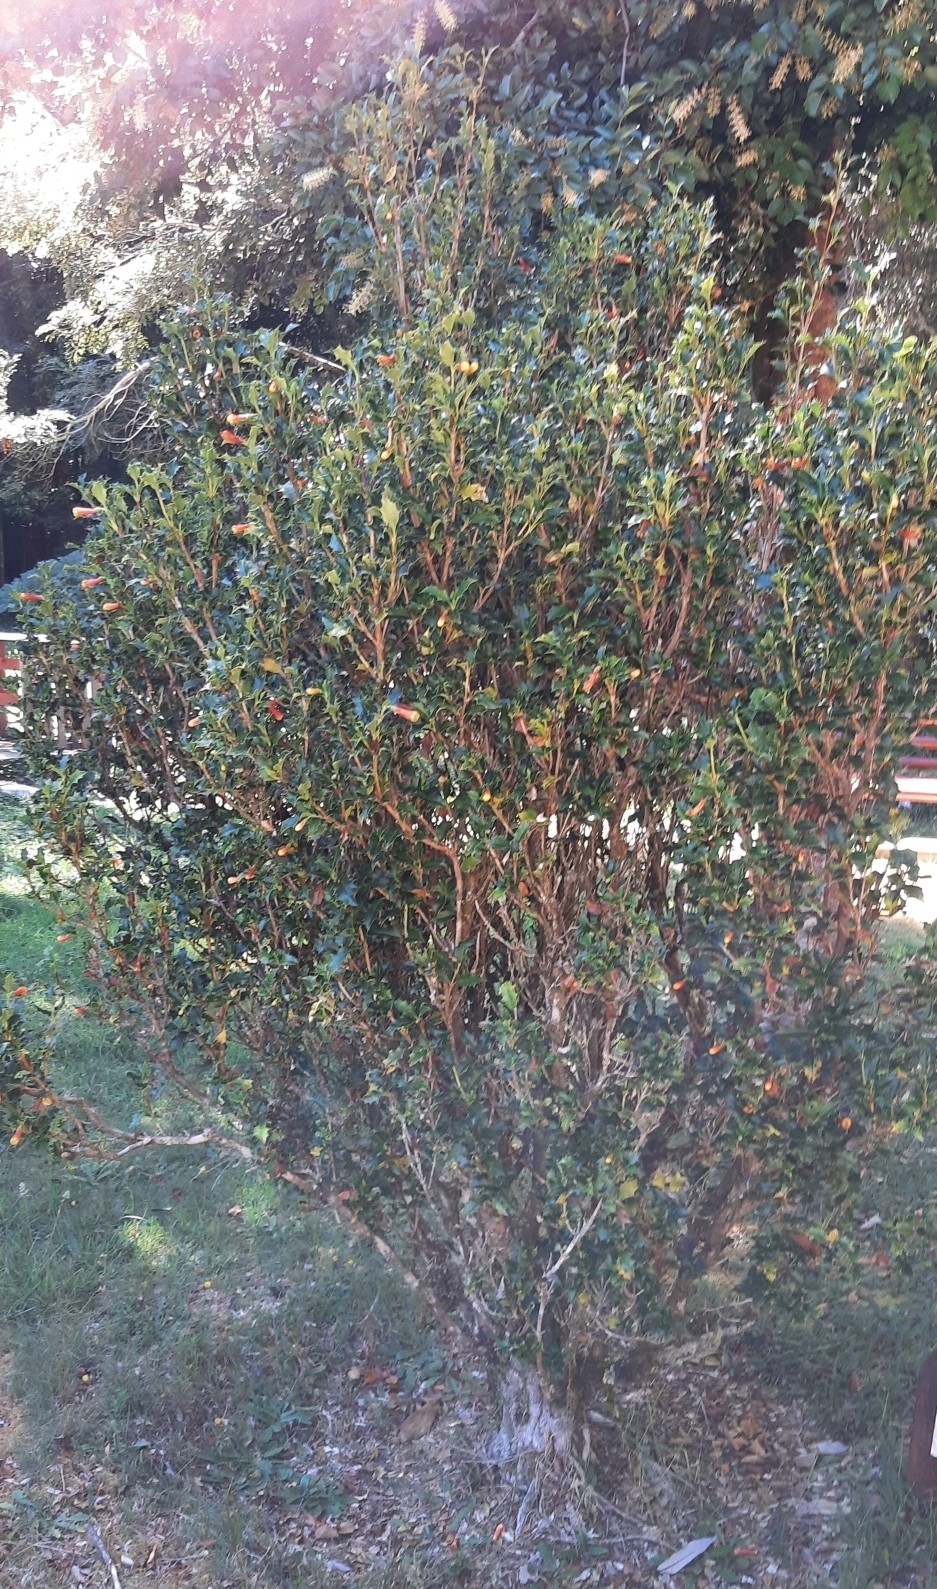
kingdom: Plantae
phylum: Tracheophyta
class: Magnoliopsida
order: Bruniales
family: Columelliaceae
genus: Desfontainia
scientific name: Desfontainia fulgens
